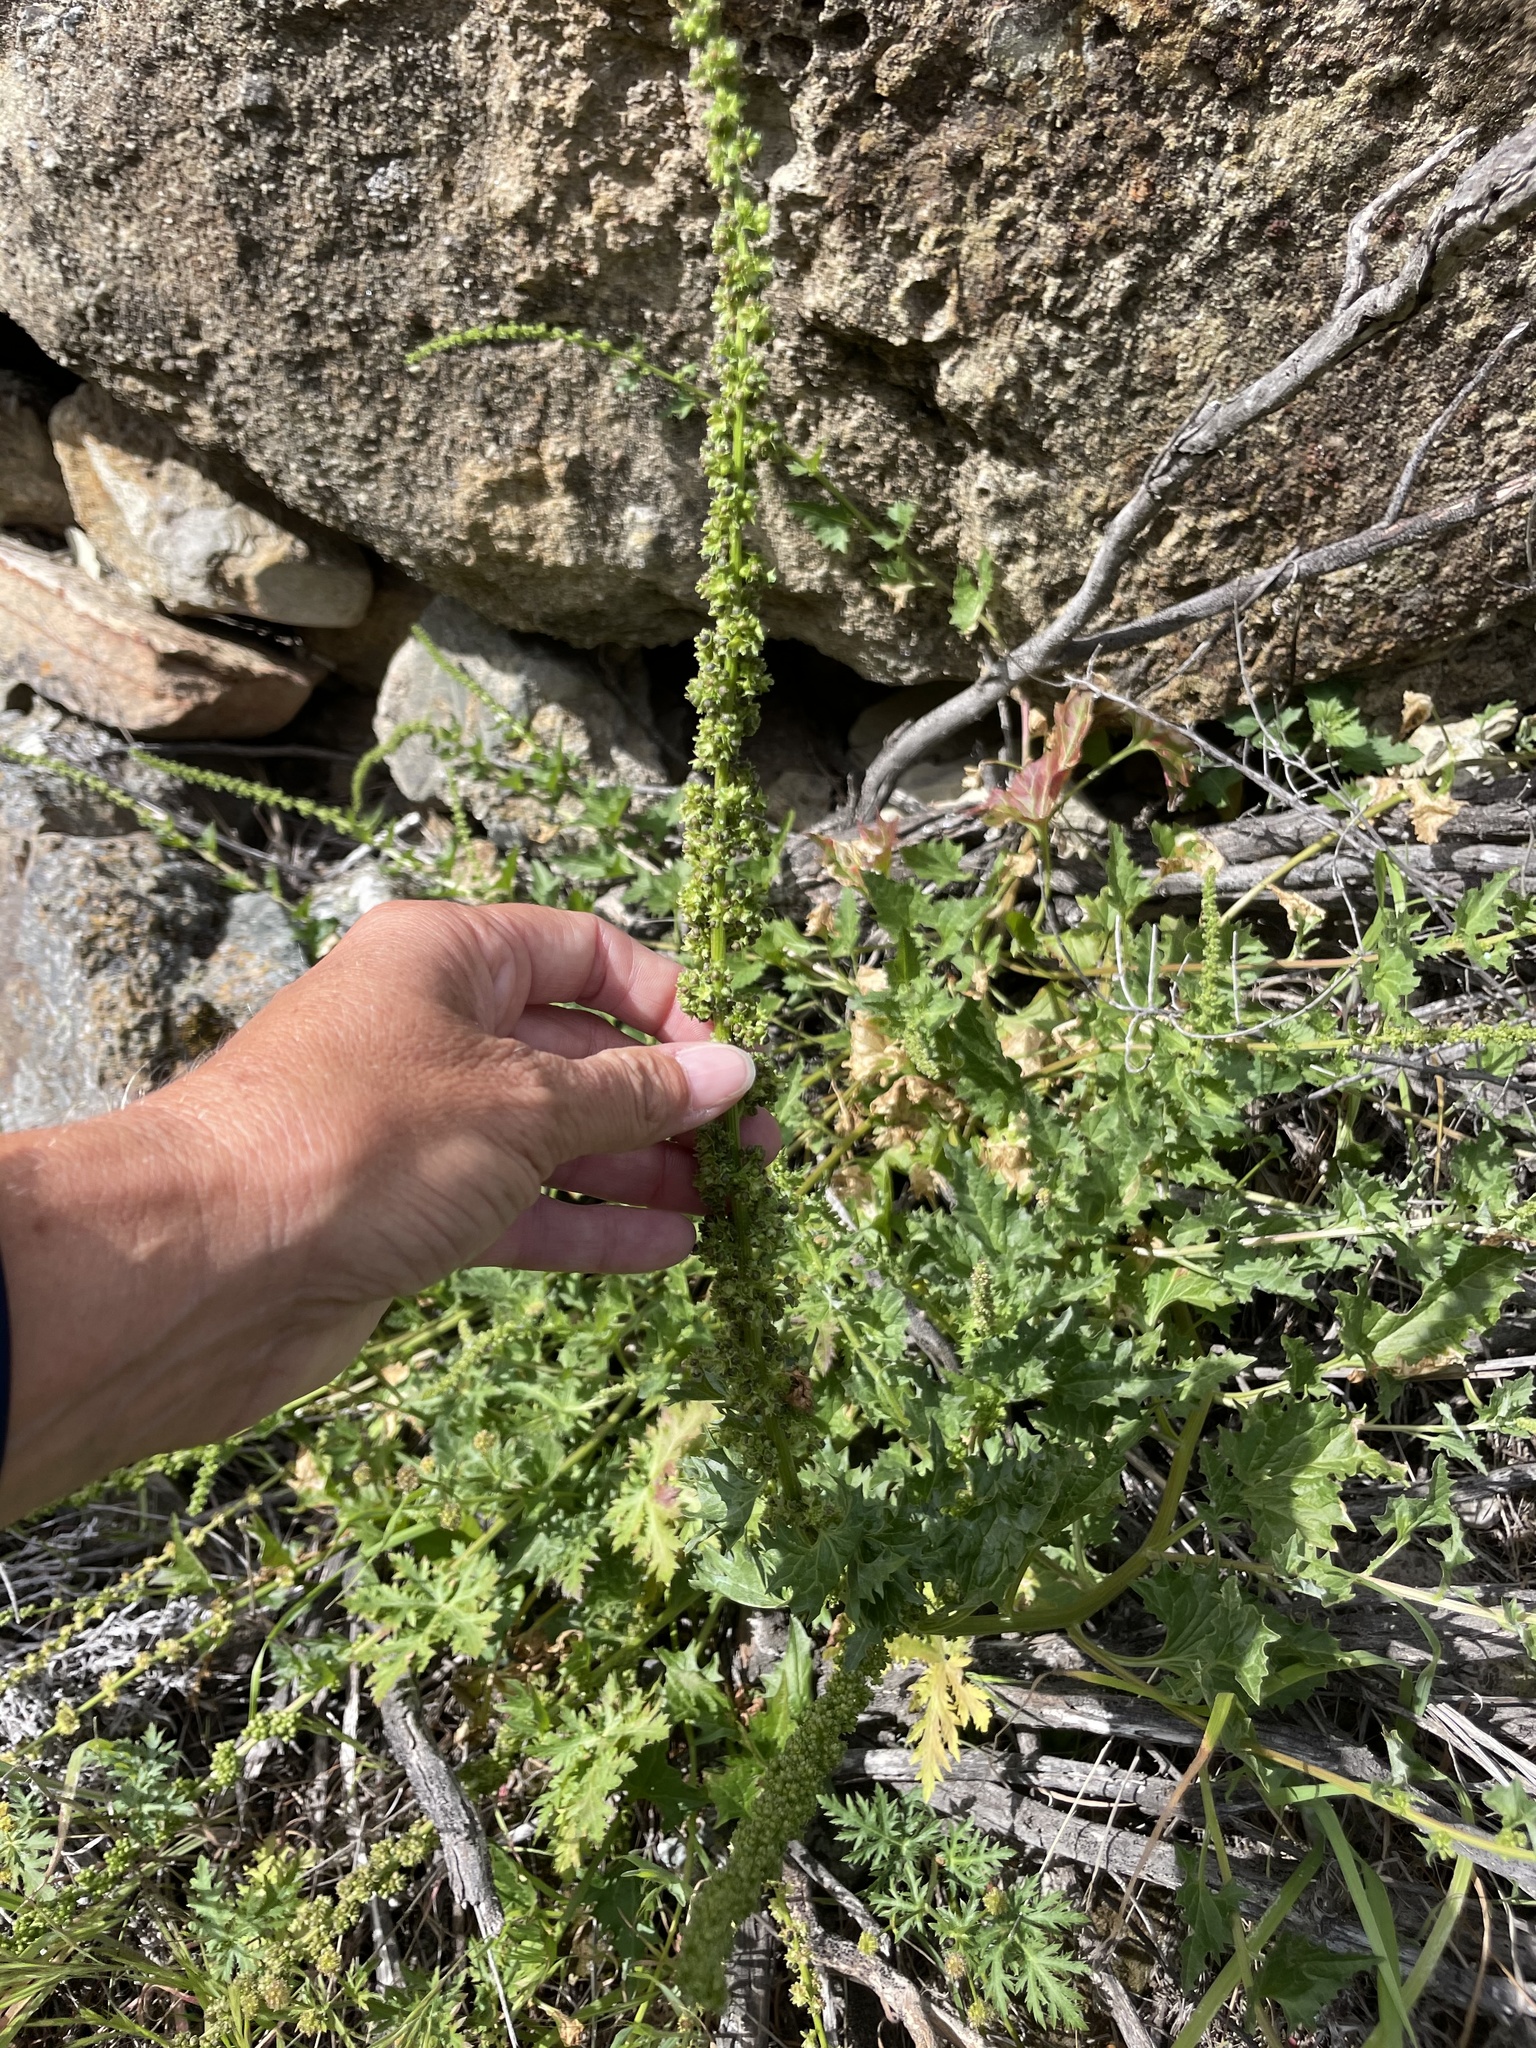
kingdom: Plantae
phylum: Tracheophyta
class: Magnoliopsida
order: Caryophyllales
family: Amaranthaceae
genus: Blitum
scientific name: Blitum californicum
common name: California goosefoot
